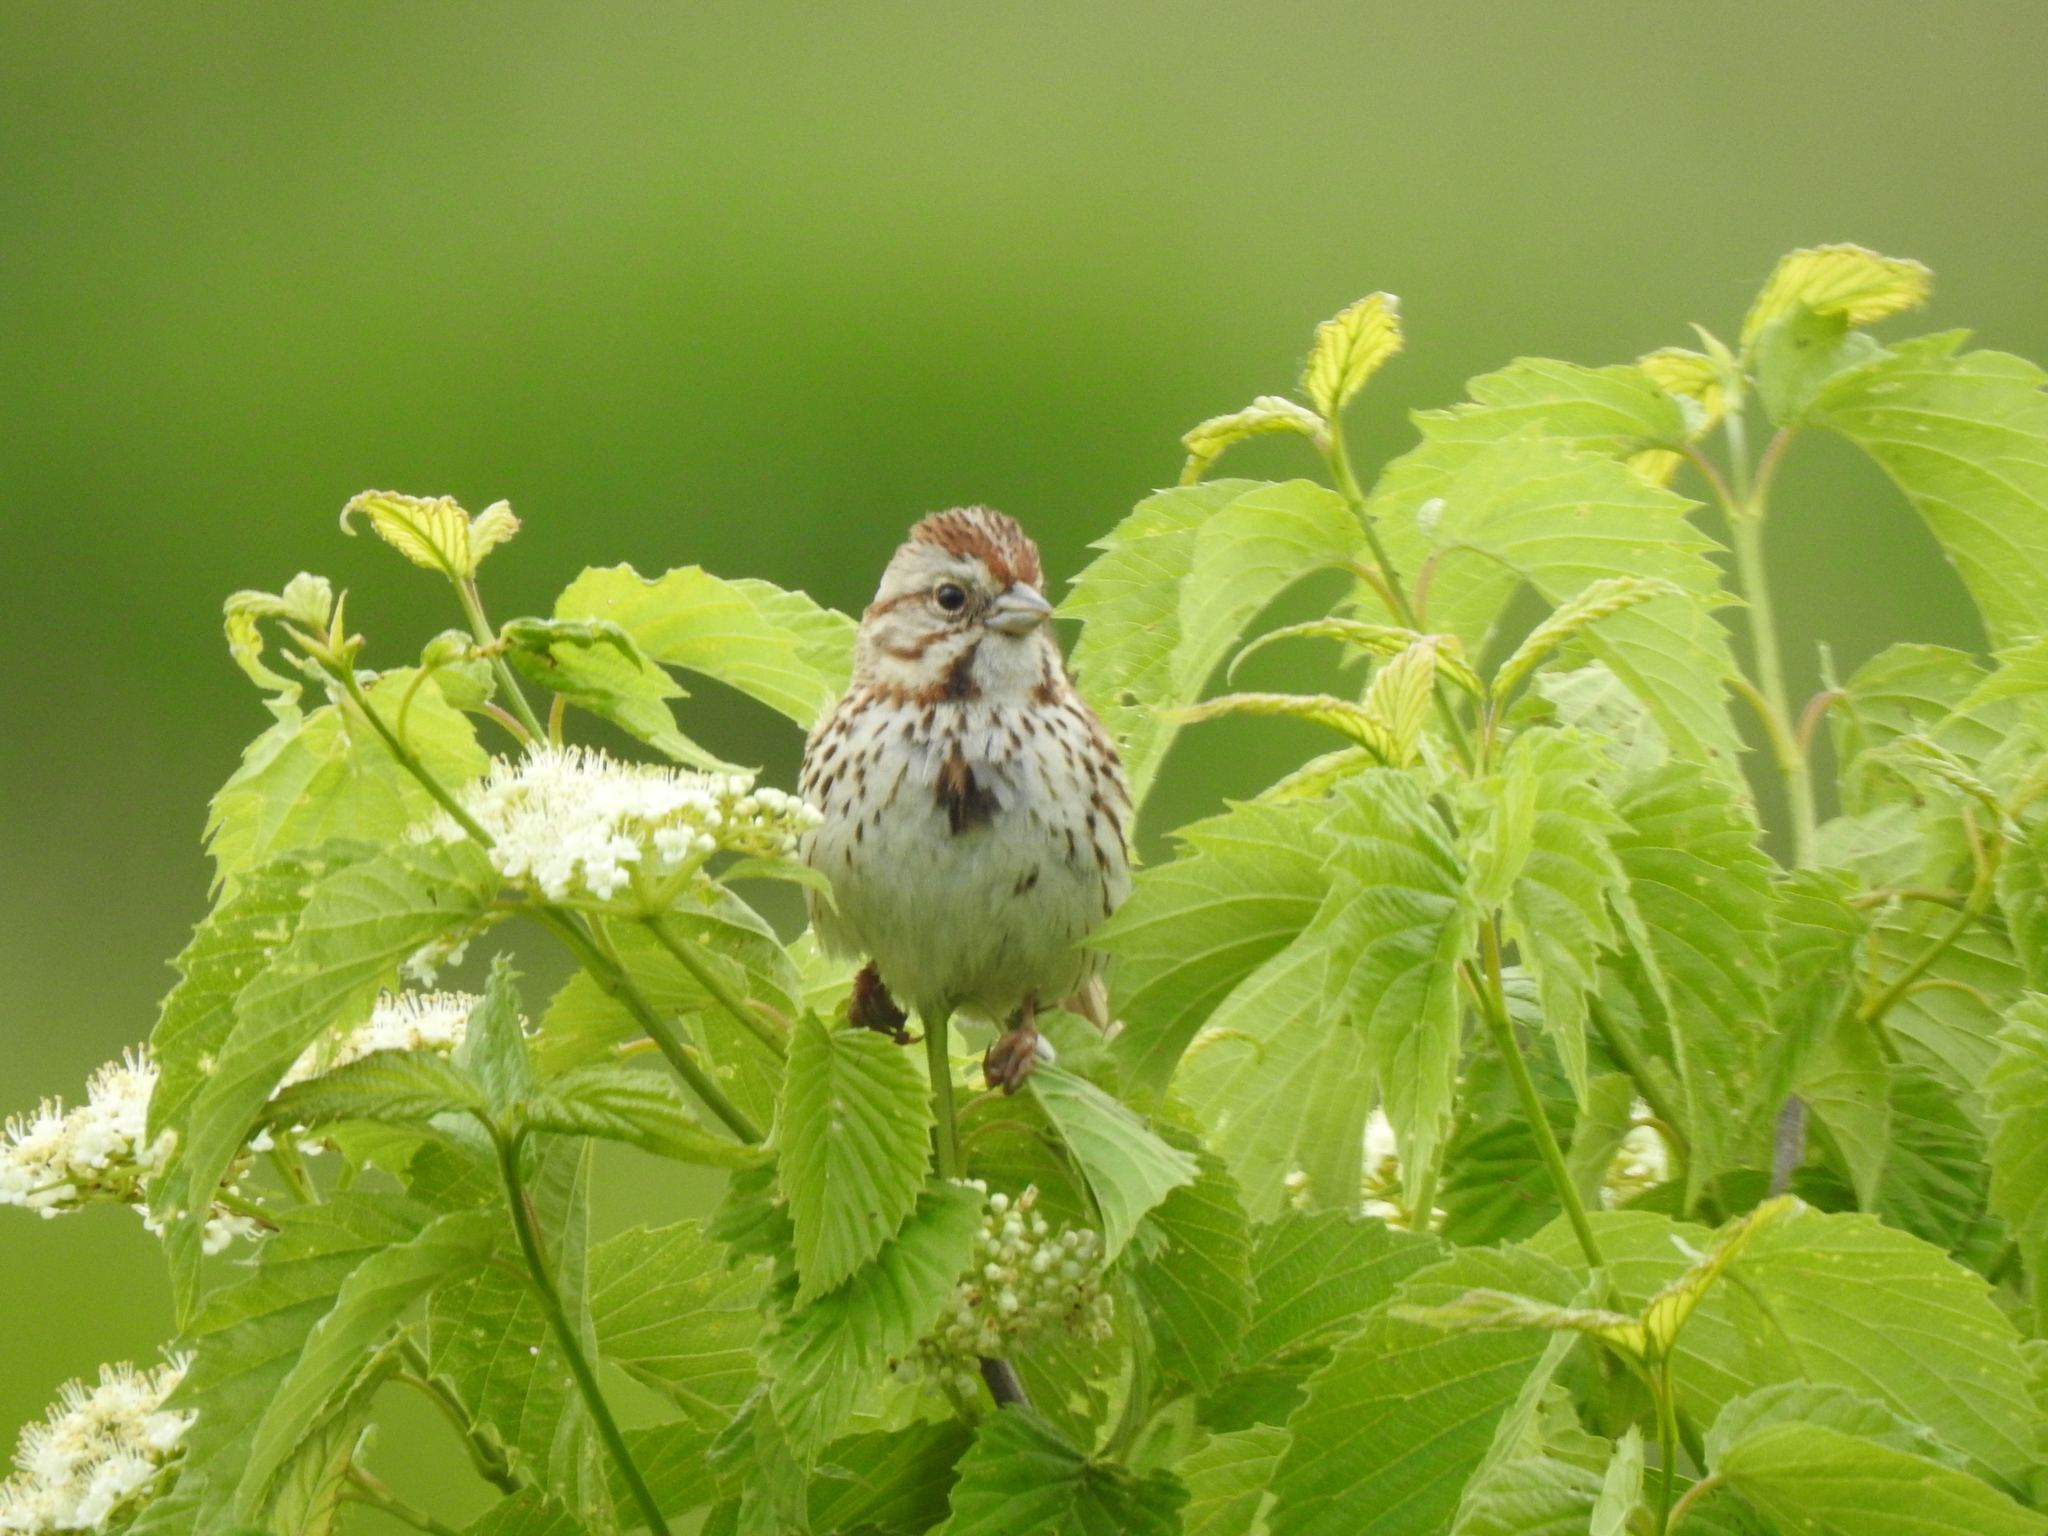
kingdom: Animalia
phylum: Chordata
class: Aves
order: Passeriformes
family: Passerellidae
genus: Melospiza
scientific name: Melospiza melodia
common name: Song sparrow
